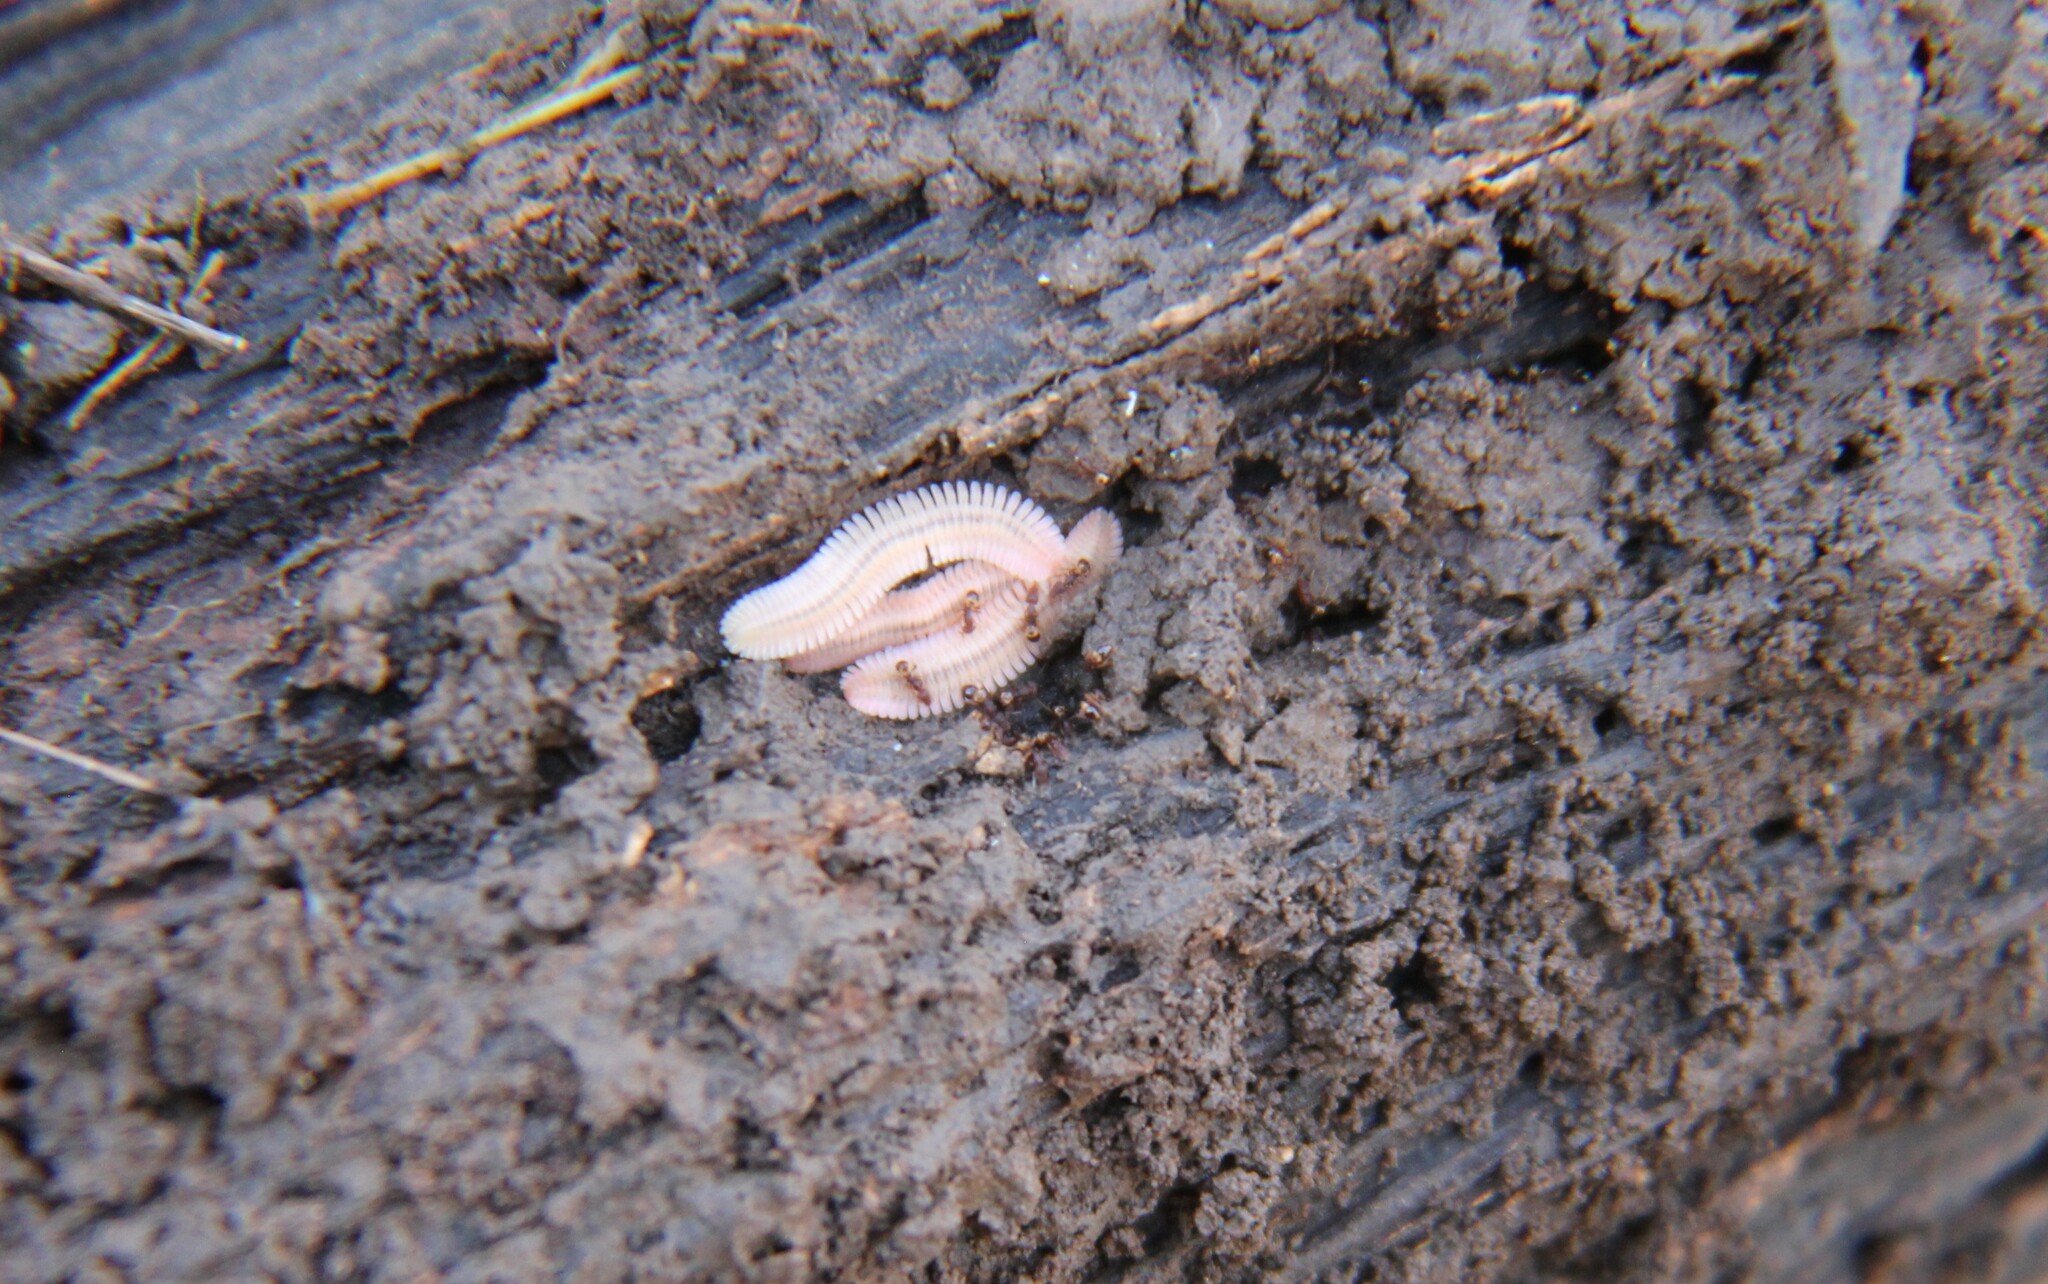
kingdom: Animalia
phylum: Arthropoda
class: Diplopoda
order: Platydesmida
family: Andrognathidae
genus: Brachycybe
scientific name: Brachycybe lecontii
